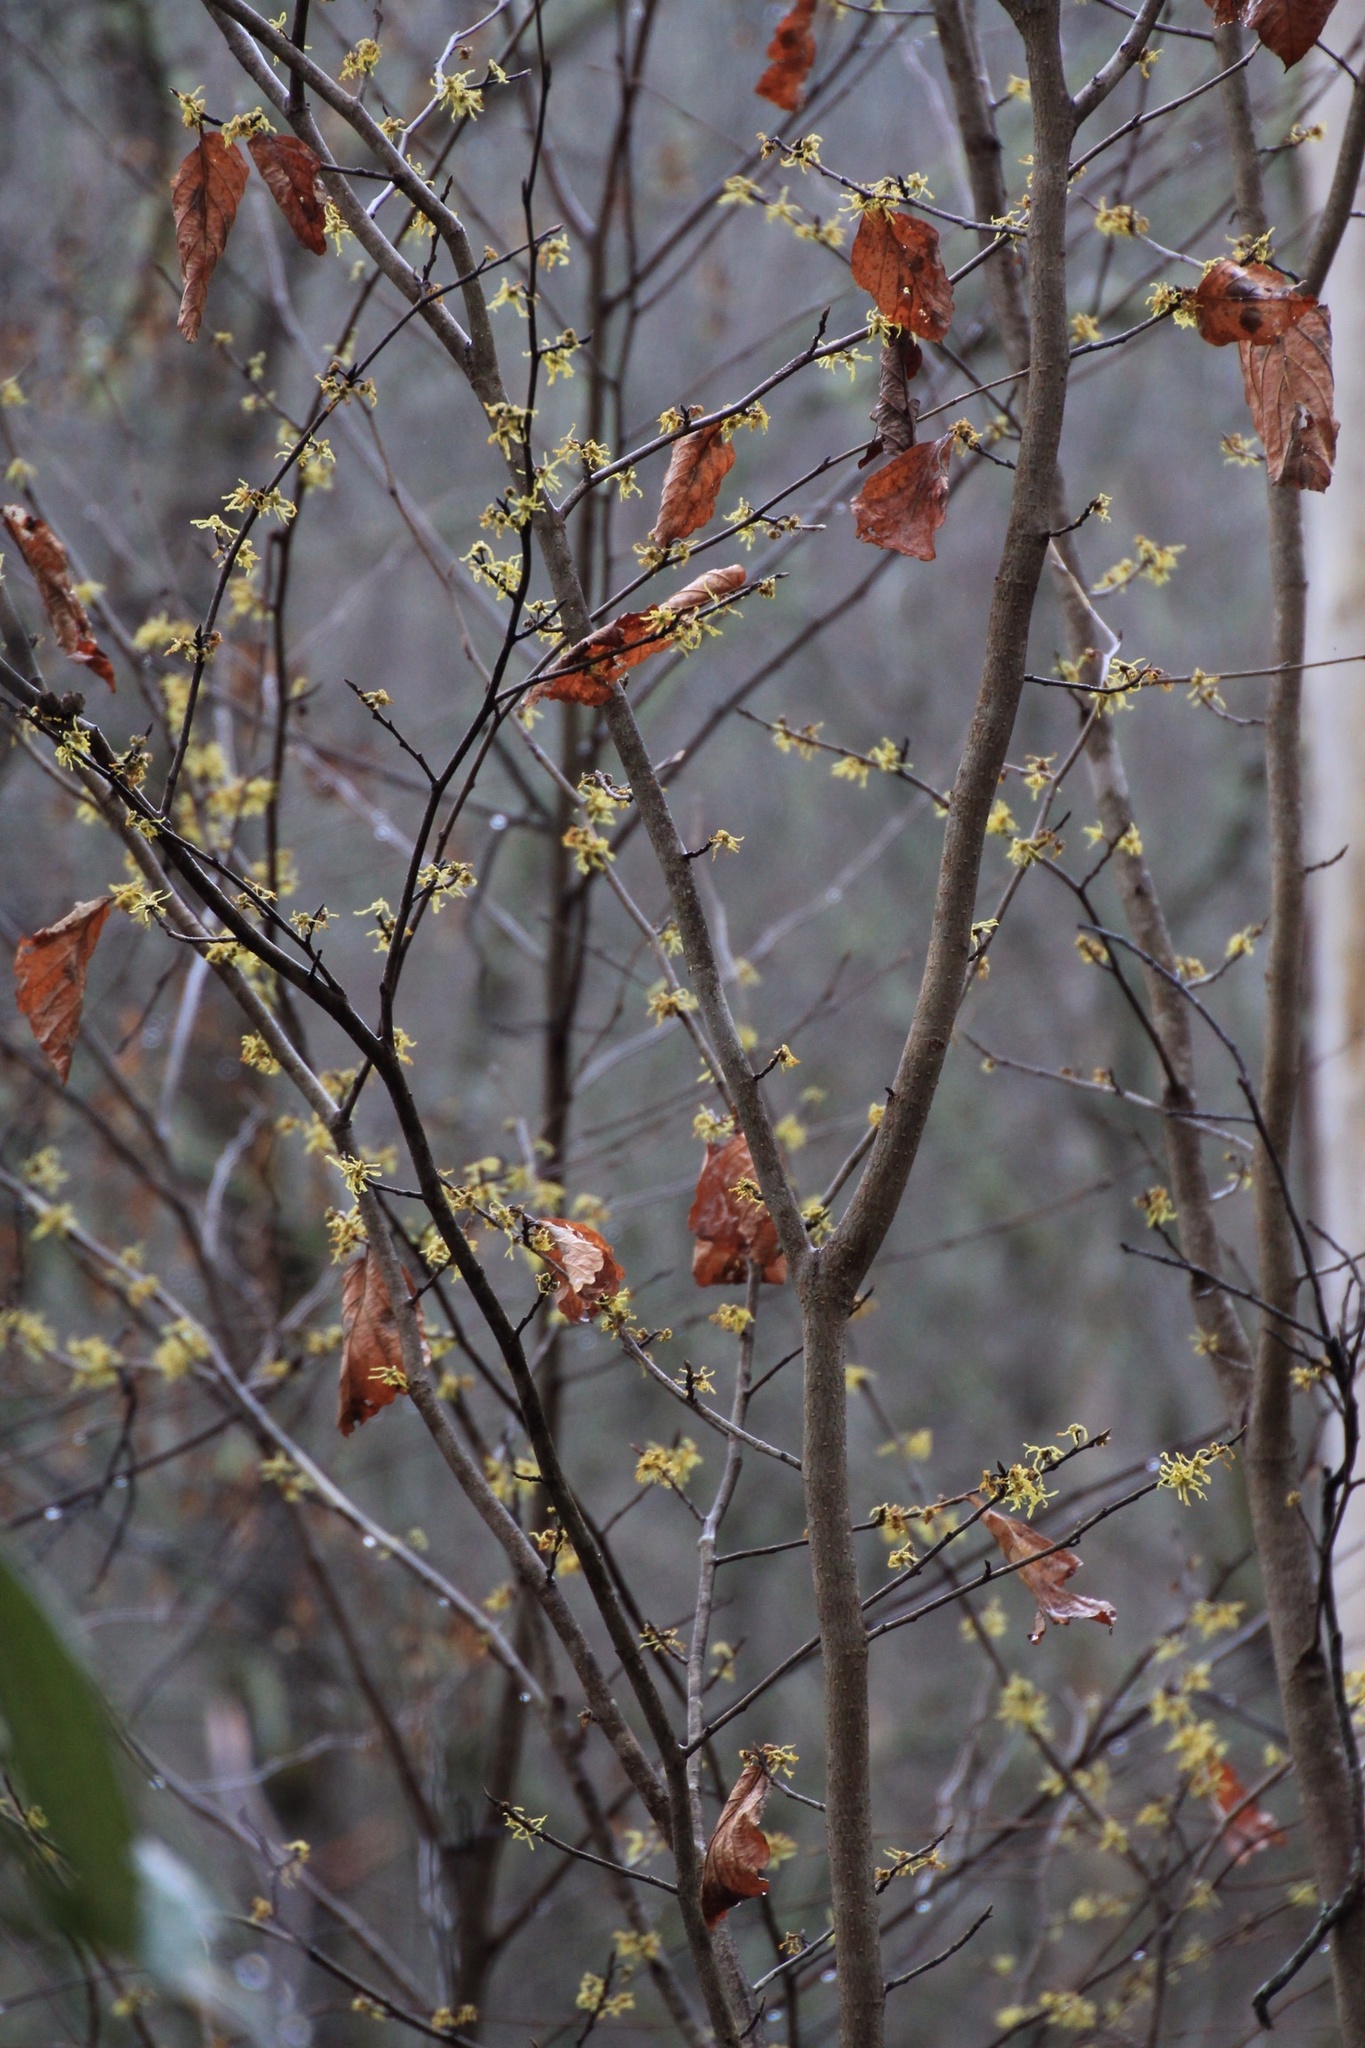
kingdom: Plantae
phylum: Tracheophyta
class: Magnoliopsida
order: Saxifragales
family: Hamamelidaceae
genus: Hamamelis
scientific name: Hamamelis virginiana
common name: Witch-hazel
